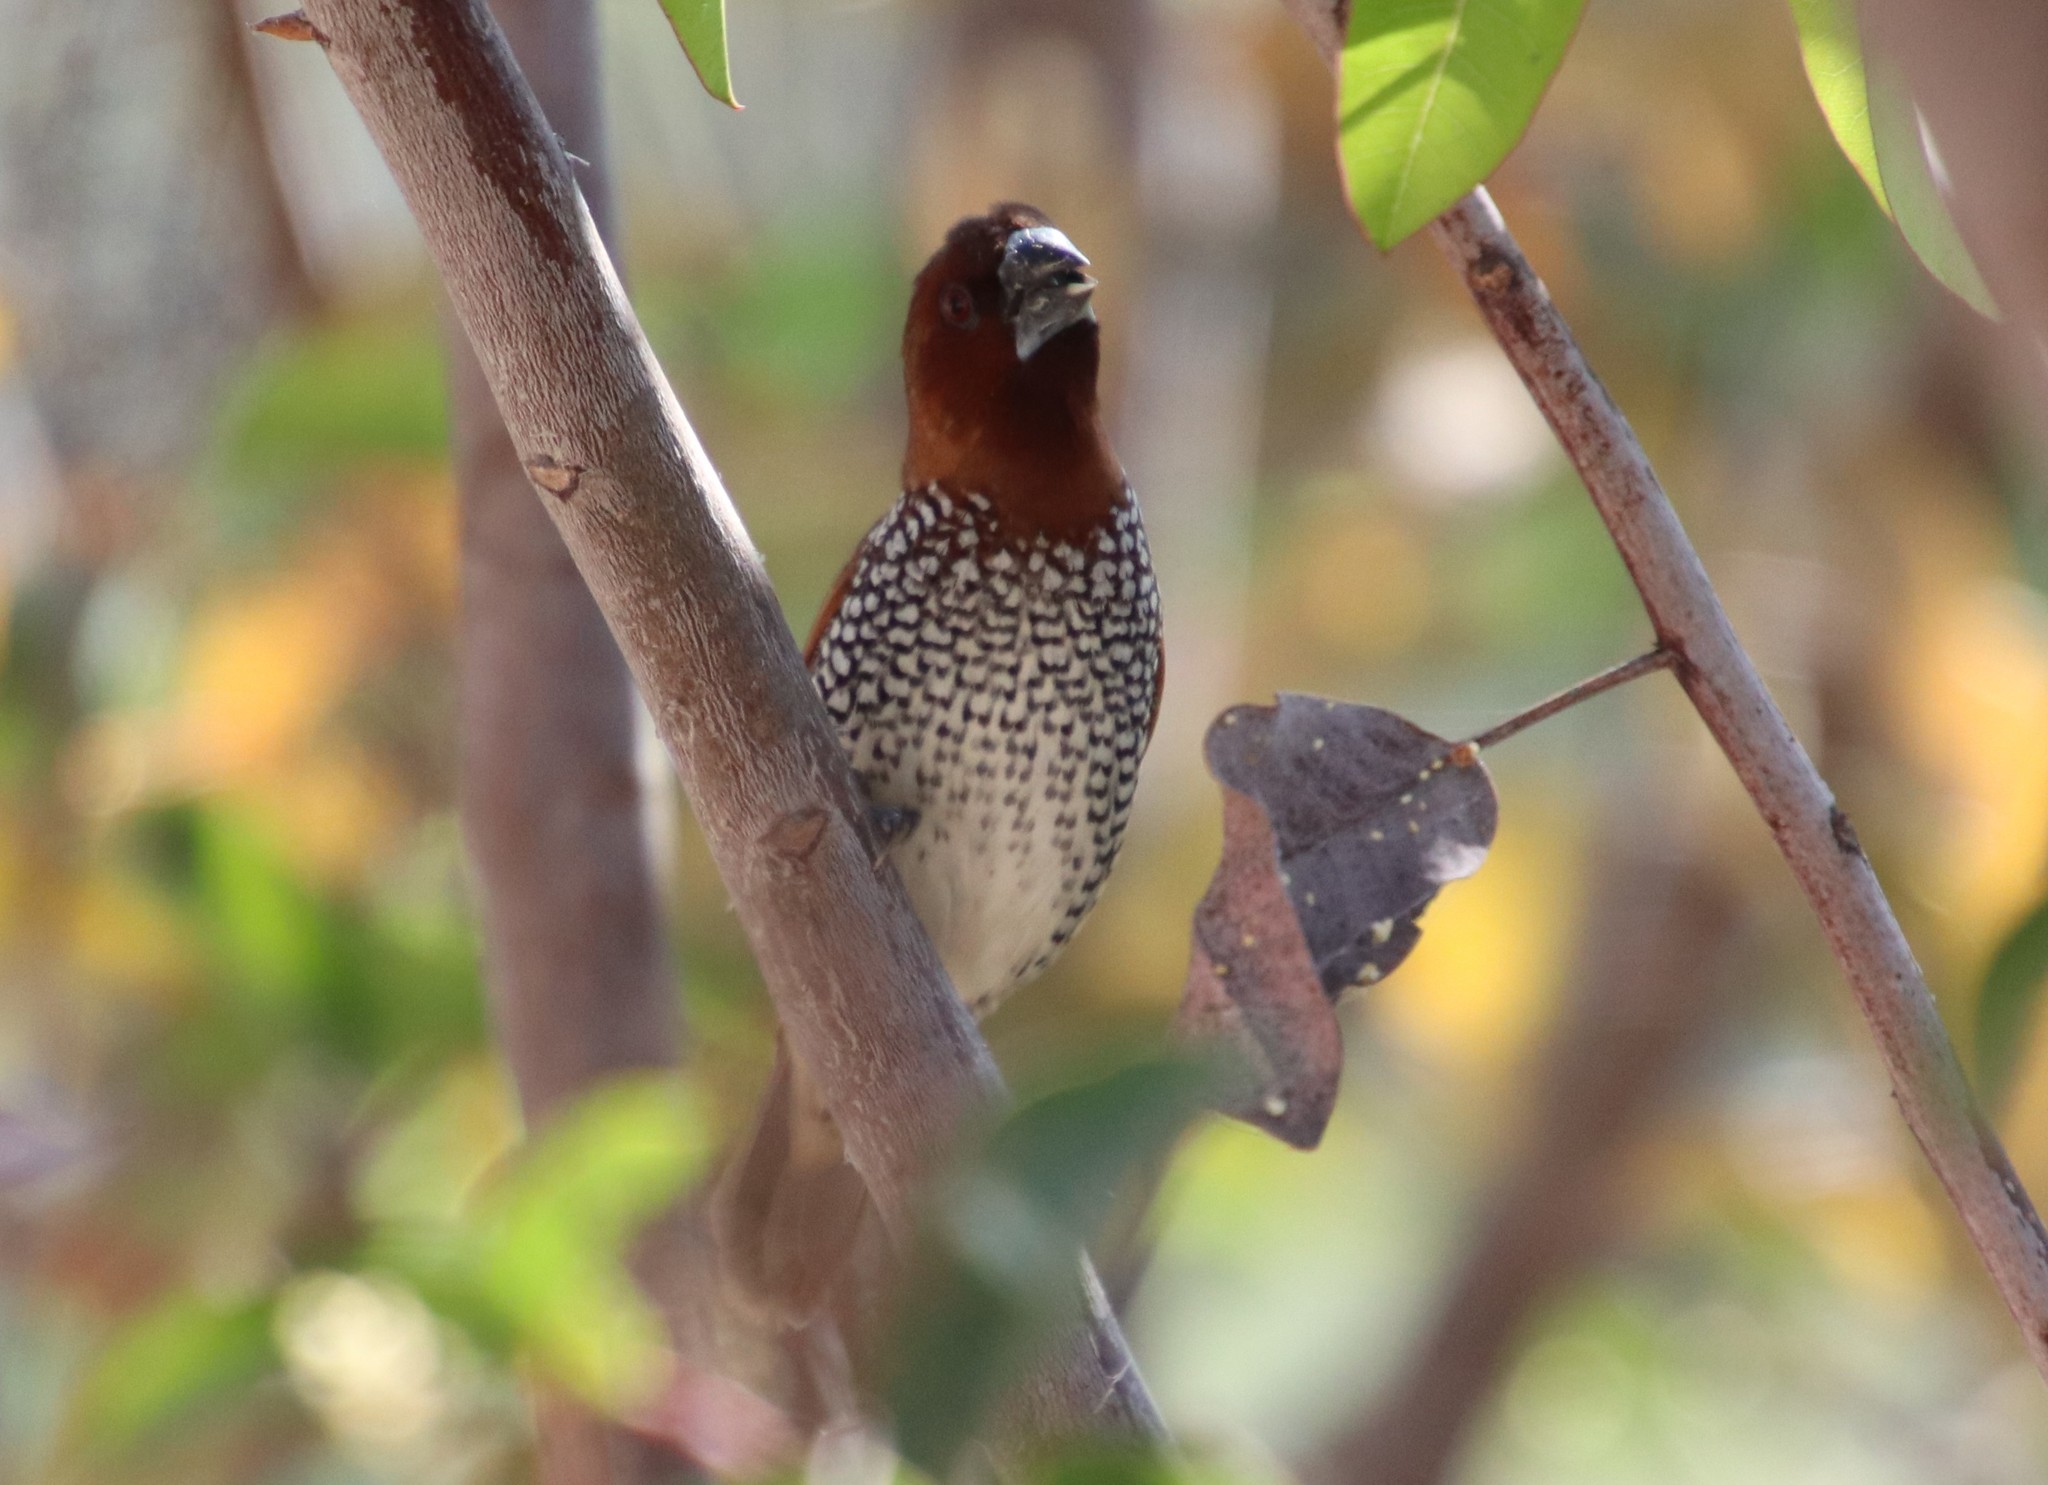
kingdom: Animalia
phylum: Chordata
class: Aves
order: Passeriformes
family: Estrildidae
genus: Lonchura
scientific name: Lonchura punctulata
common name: Scaly-breasted munia
